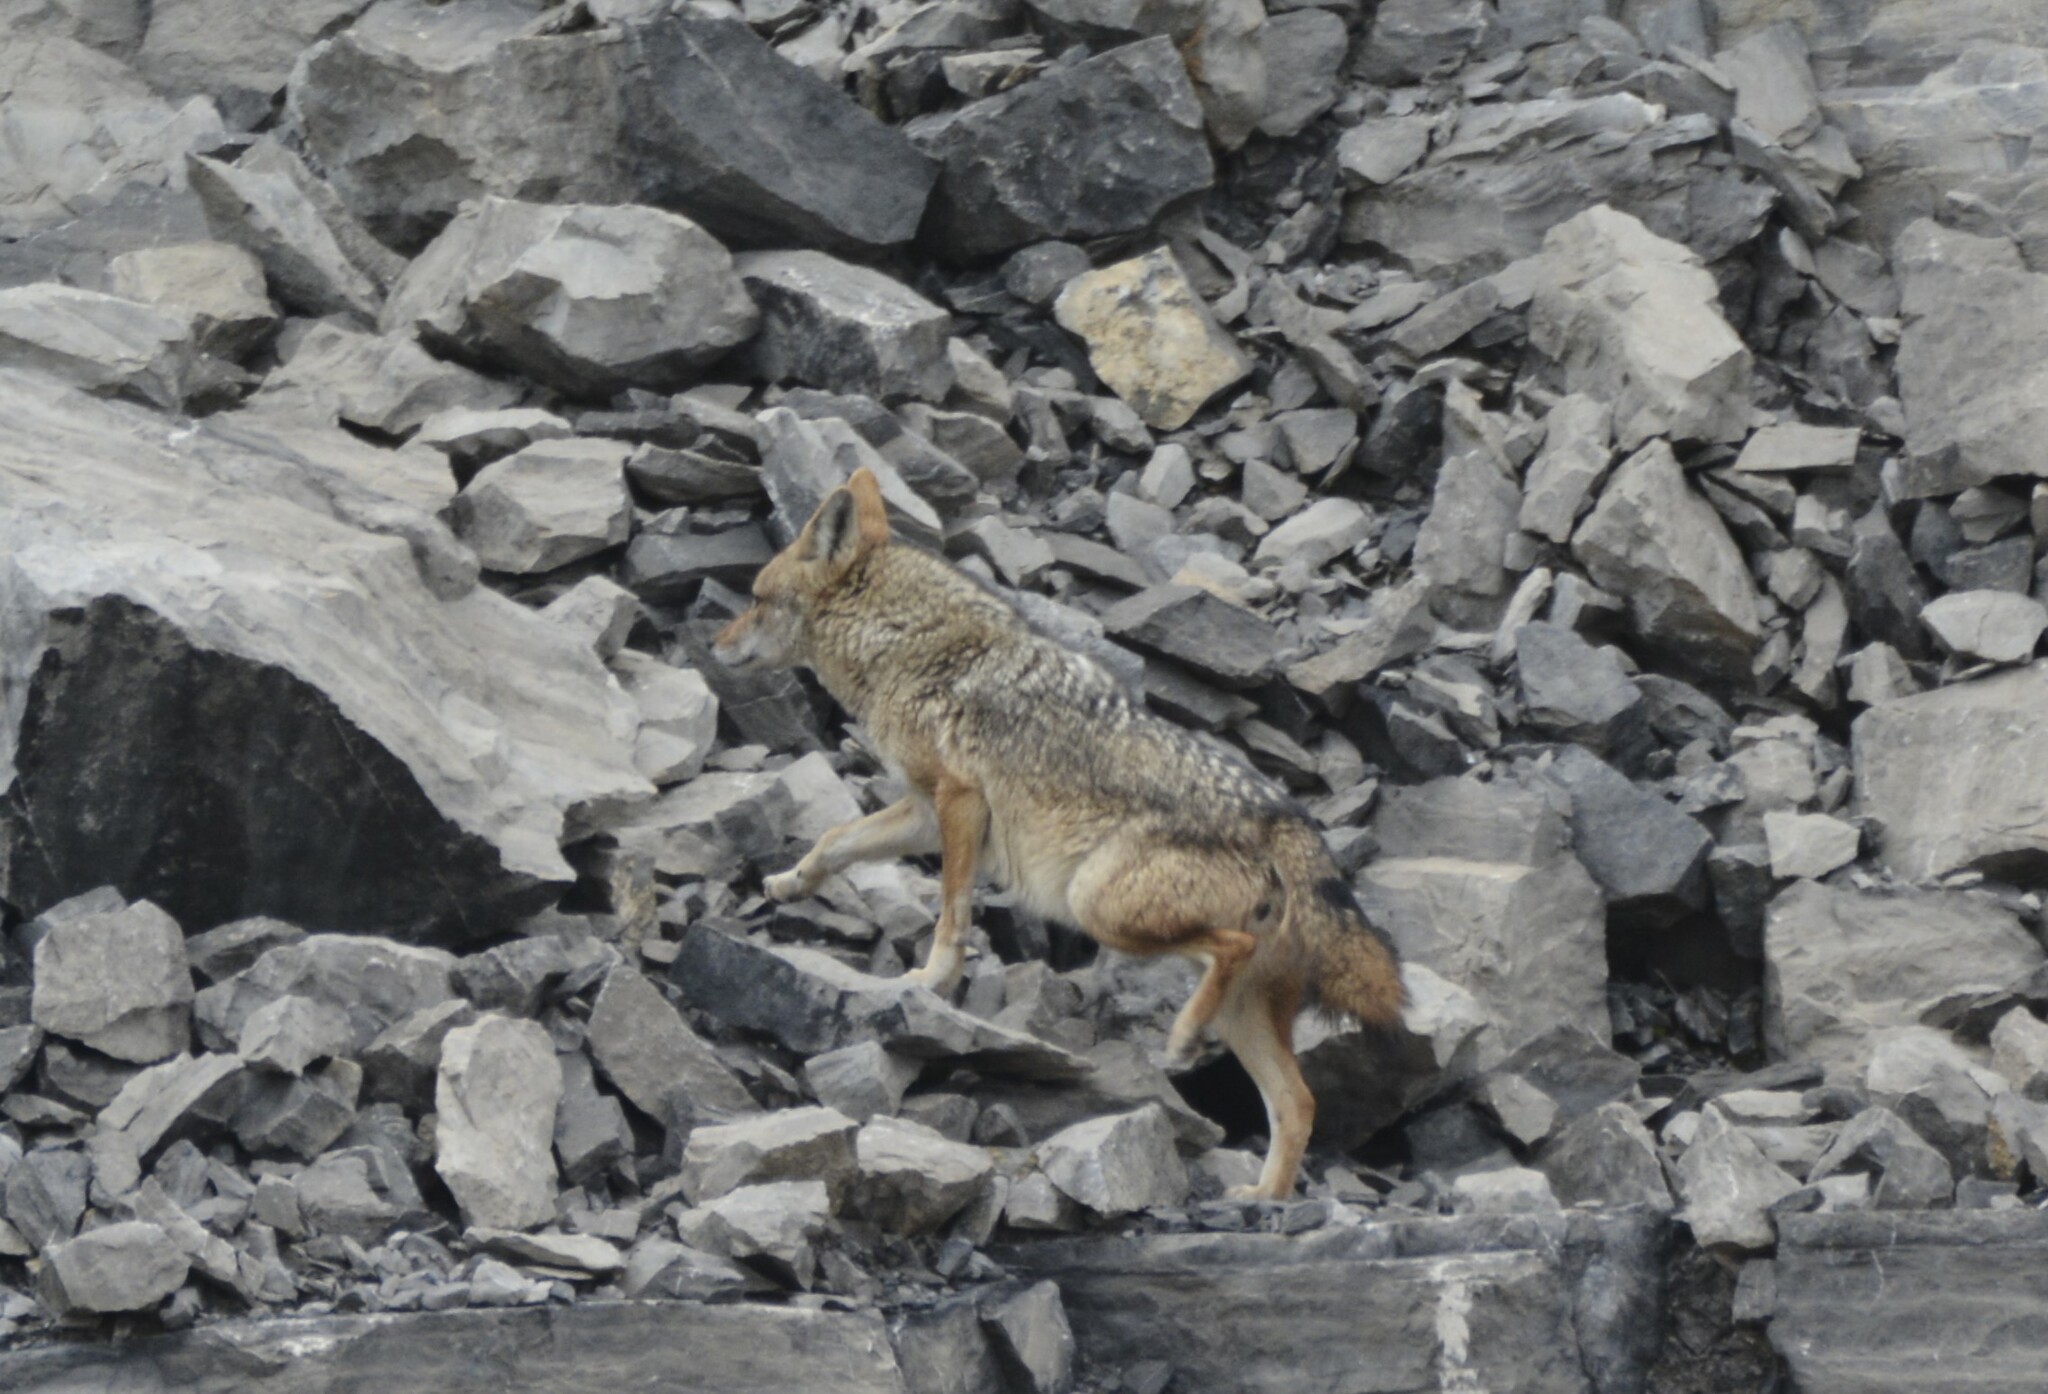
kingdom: Animalia
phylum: Chordata
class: Mammalia
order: Carnivora
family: Canidae
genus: Canis
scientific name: Canis lupaster
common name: African golden wolf
